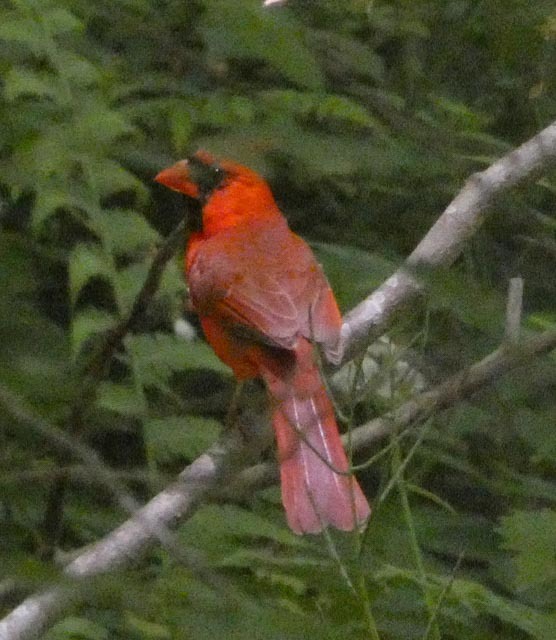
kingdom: Animalia
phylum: Chordata
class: Aves
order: Passeriformes
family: Cardinalidae
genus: Cardinalis
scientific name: Cardinalis cardinalis
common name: Northern cardinal
